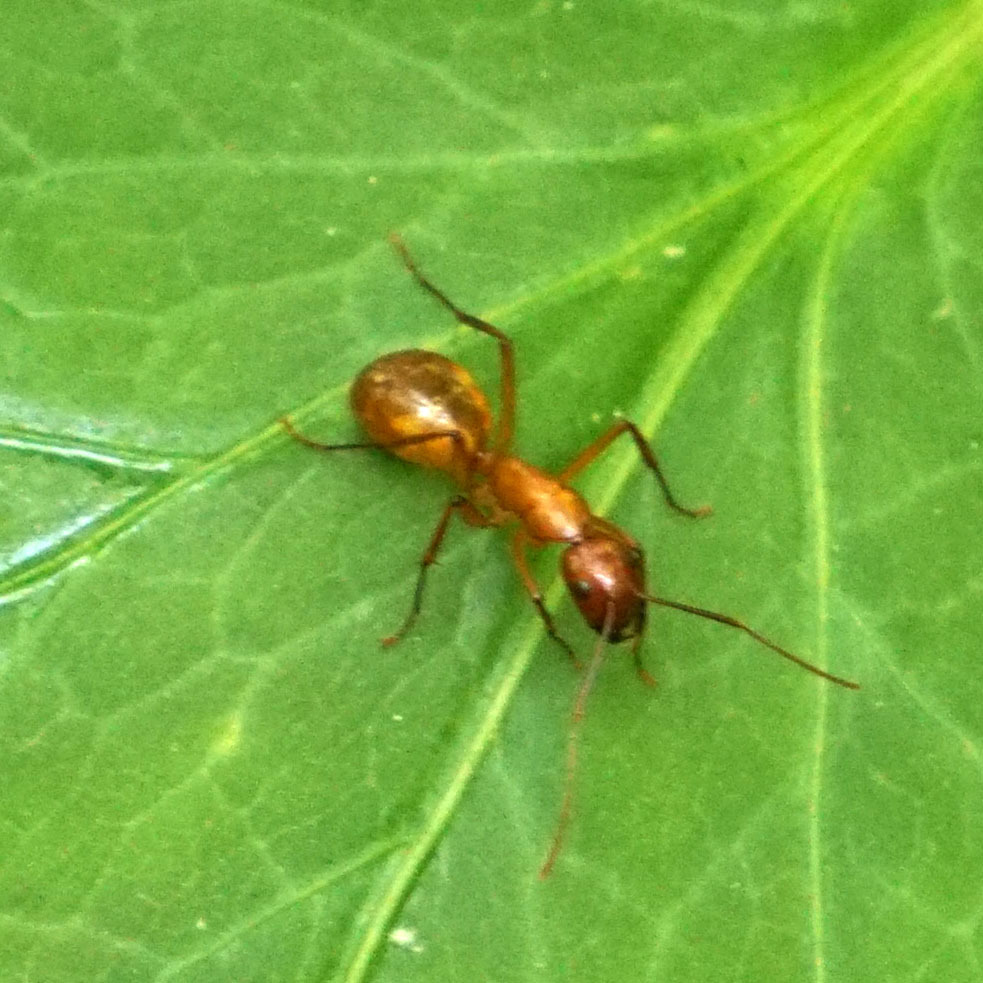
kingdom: Animalia
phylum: Arthropoda
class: Insecta
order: Hymenoptera
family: Formicidae
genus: Camponotus
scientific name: Camponotus castaneus
